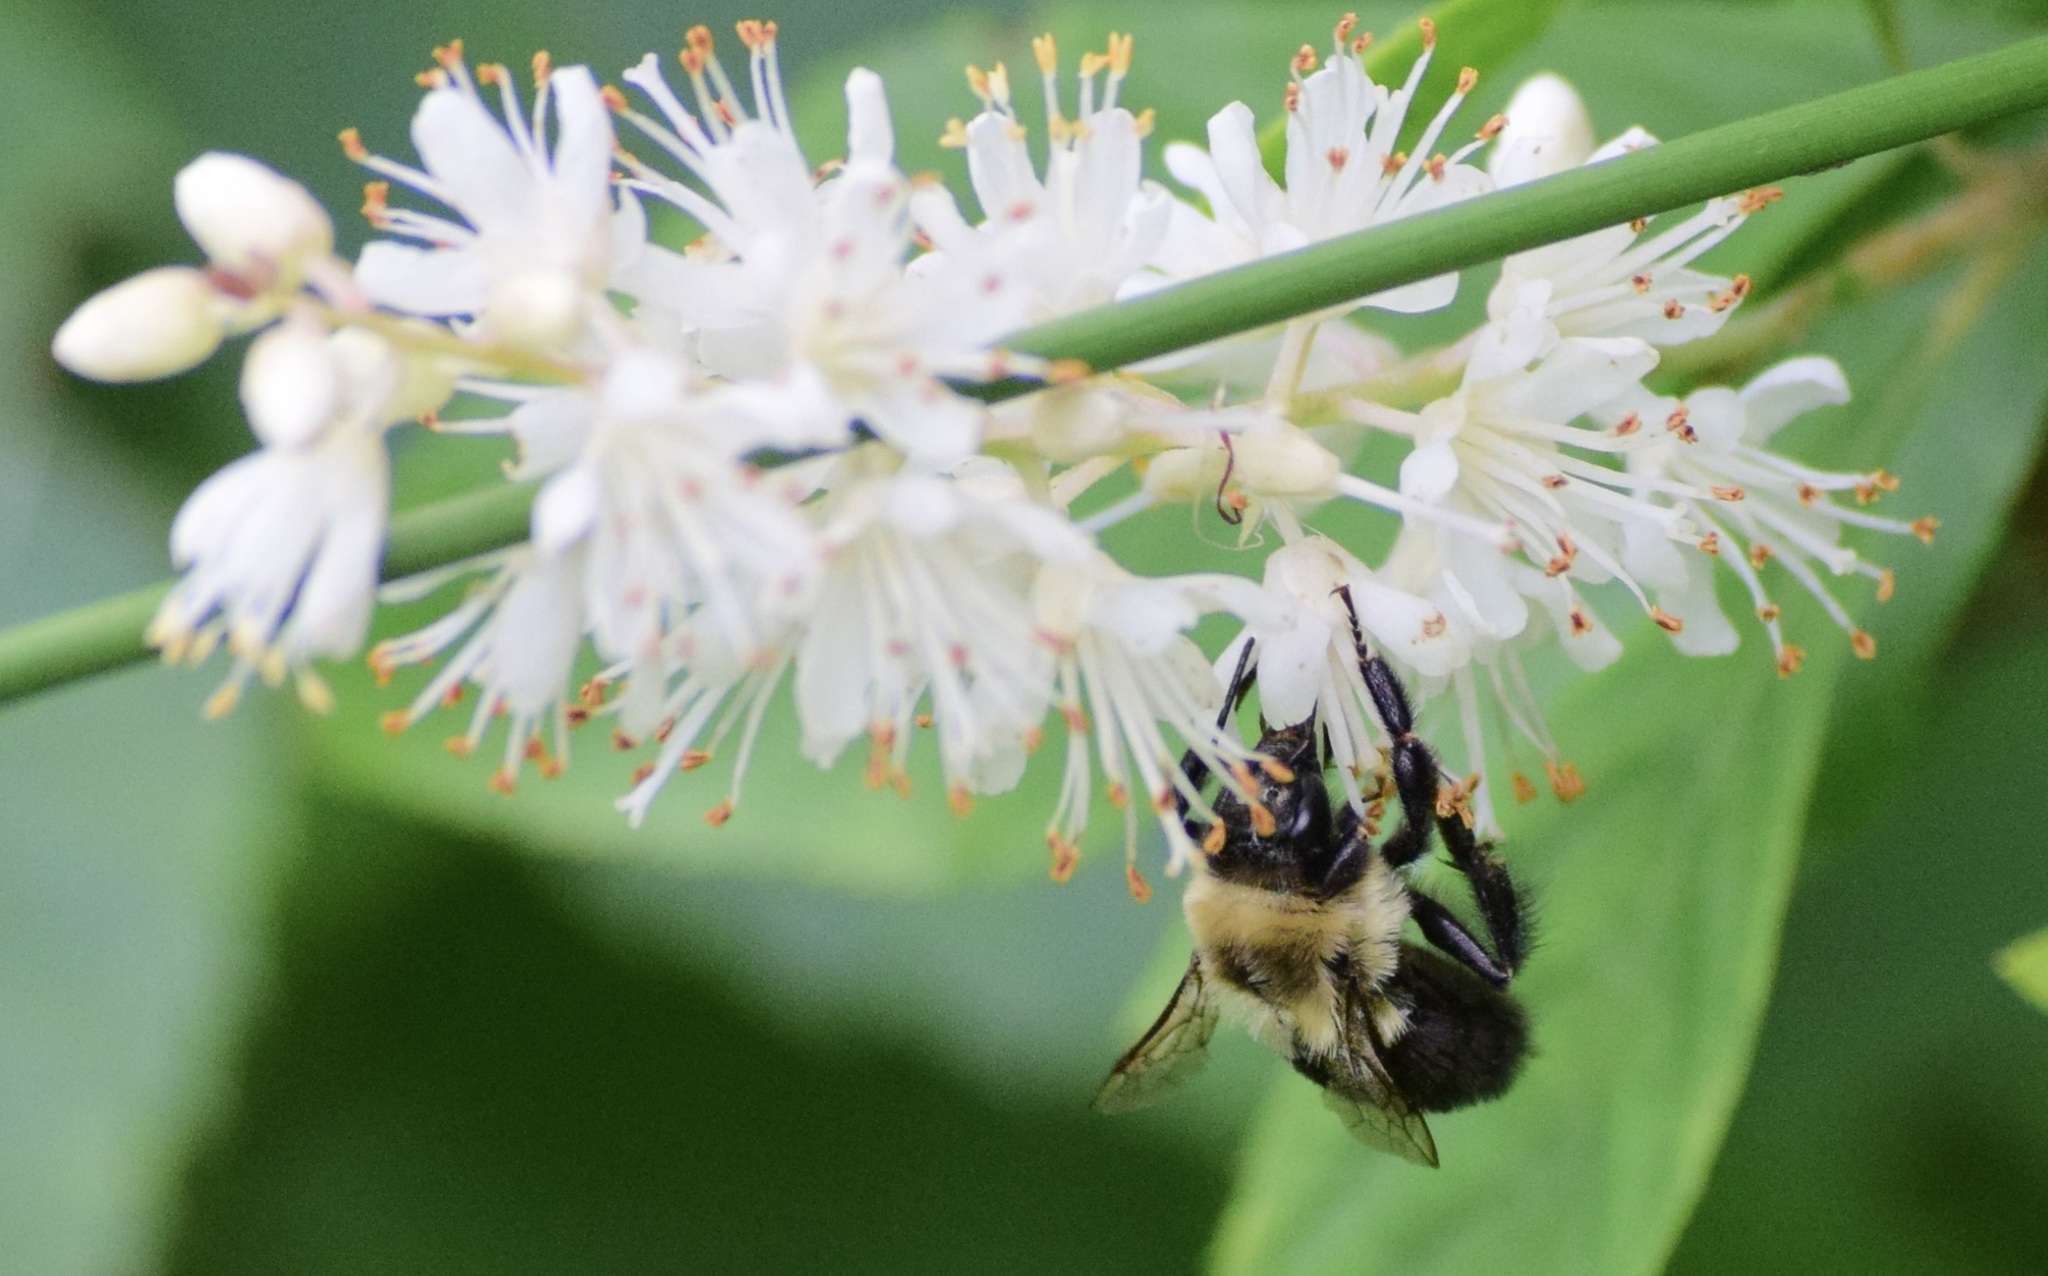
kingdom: Animalia
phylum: Arthropoda
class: Insecta
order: Hymenoptera
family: Apidae
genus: Bombus
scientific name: Bombus impatiens
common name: Common eastern bumble bee
